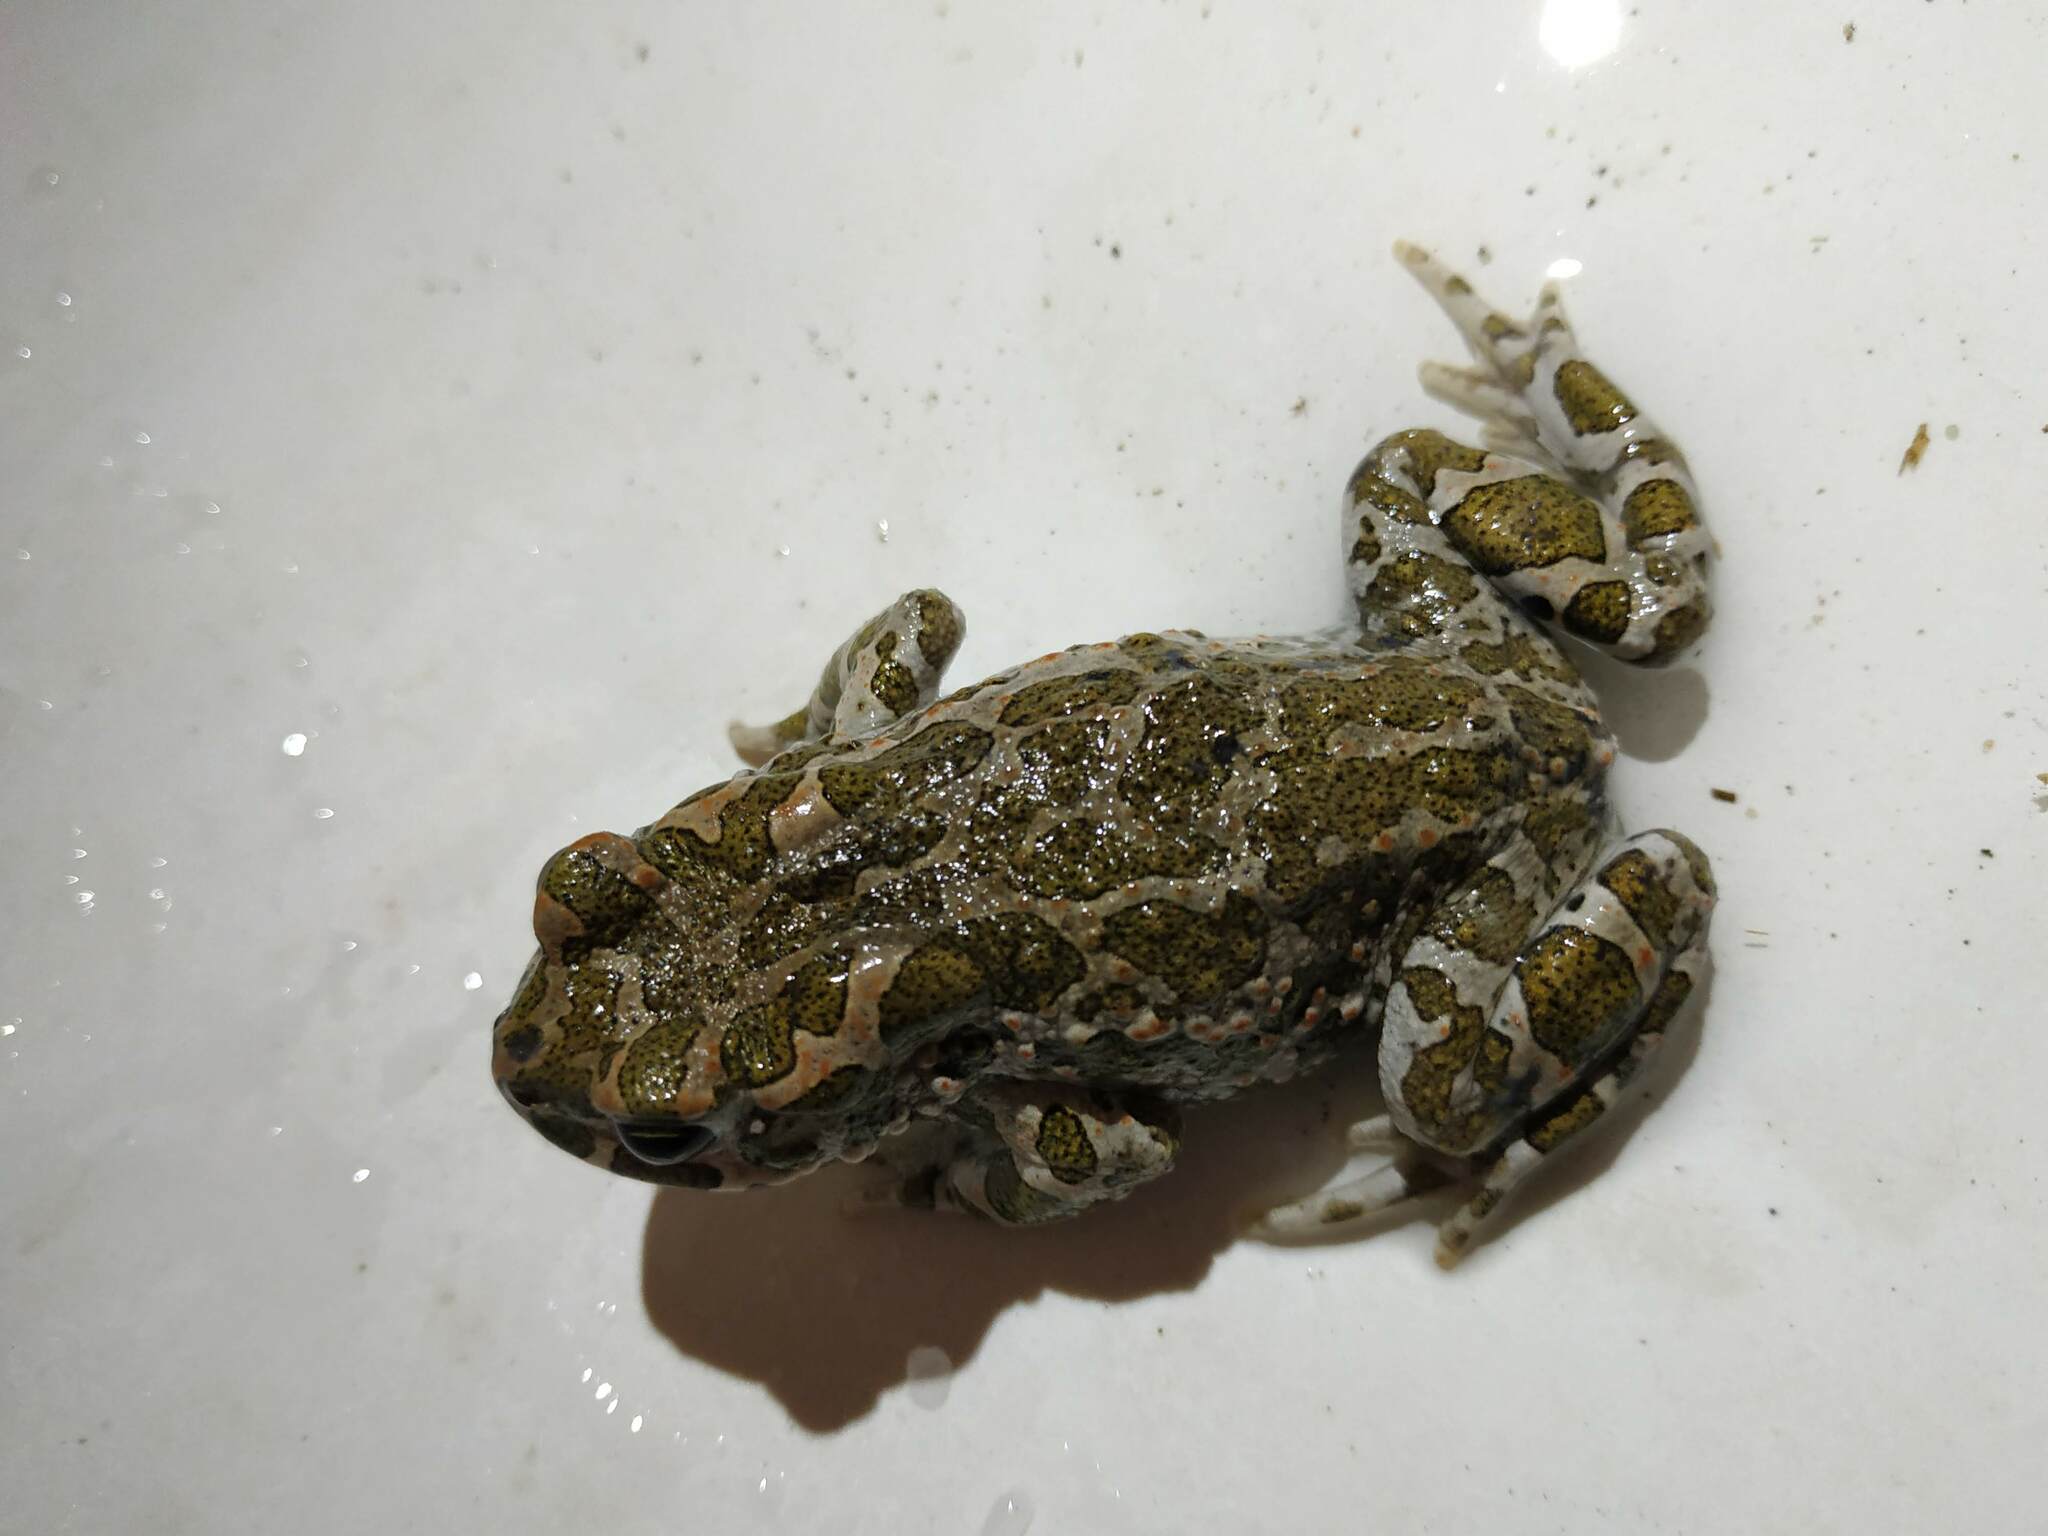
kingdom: Animalia
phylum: Chordata
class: Amphibia
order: Anura
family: Bufonidae
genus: Bufotes
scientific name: Bufotes viridis
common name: European green toad
